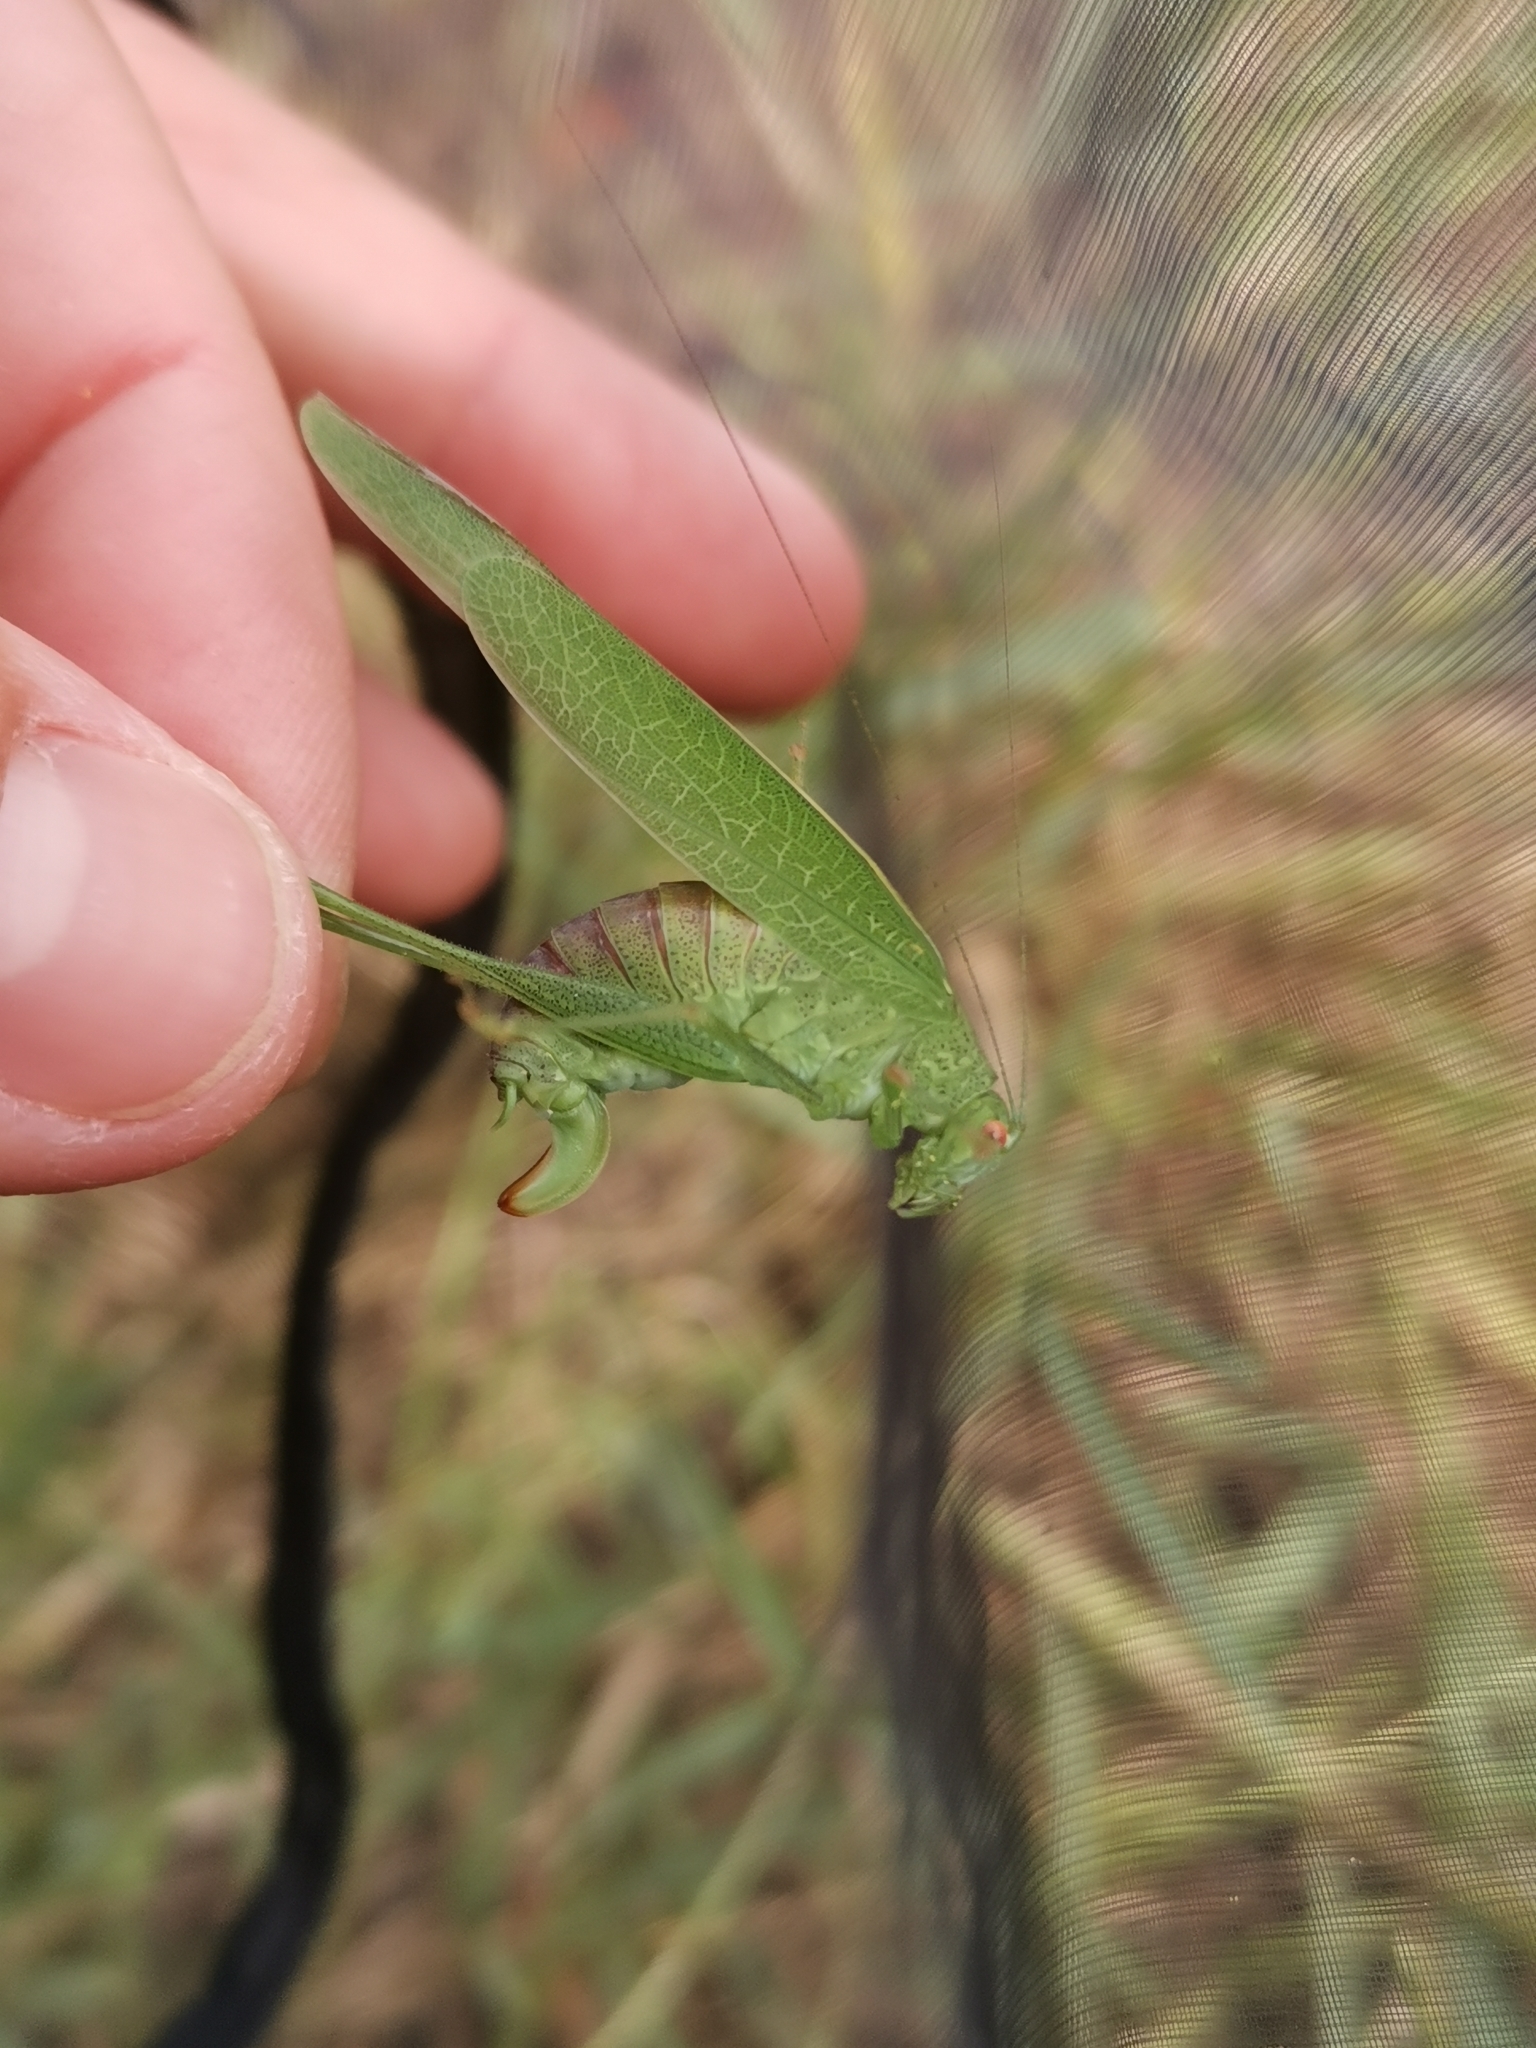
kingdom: Animalia
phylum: Arthropoda
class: Insecta
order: Orthoptera
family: Tettigoniidae
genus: Phaneroptera
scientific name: Phaneroptera nana
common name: Southern sickle bush-cricket
